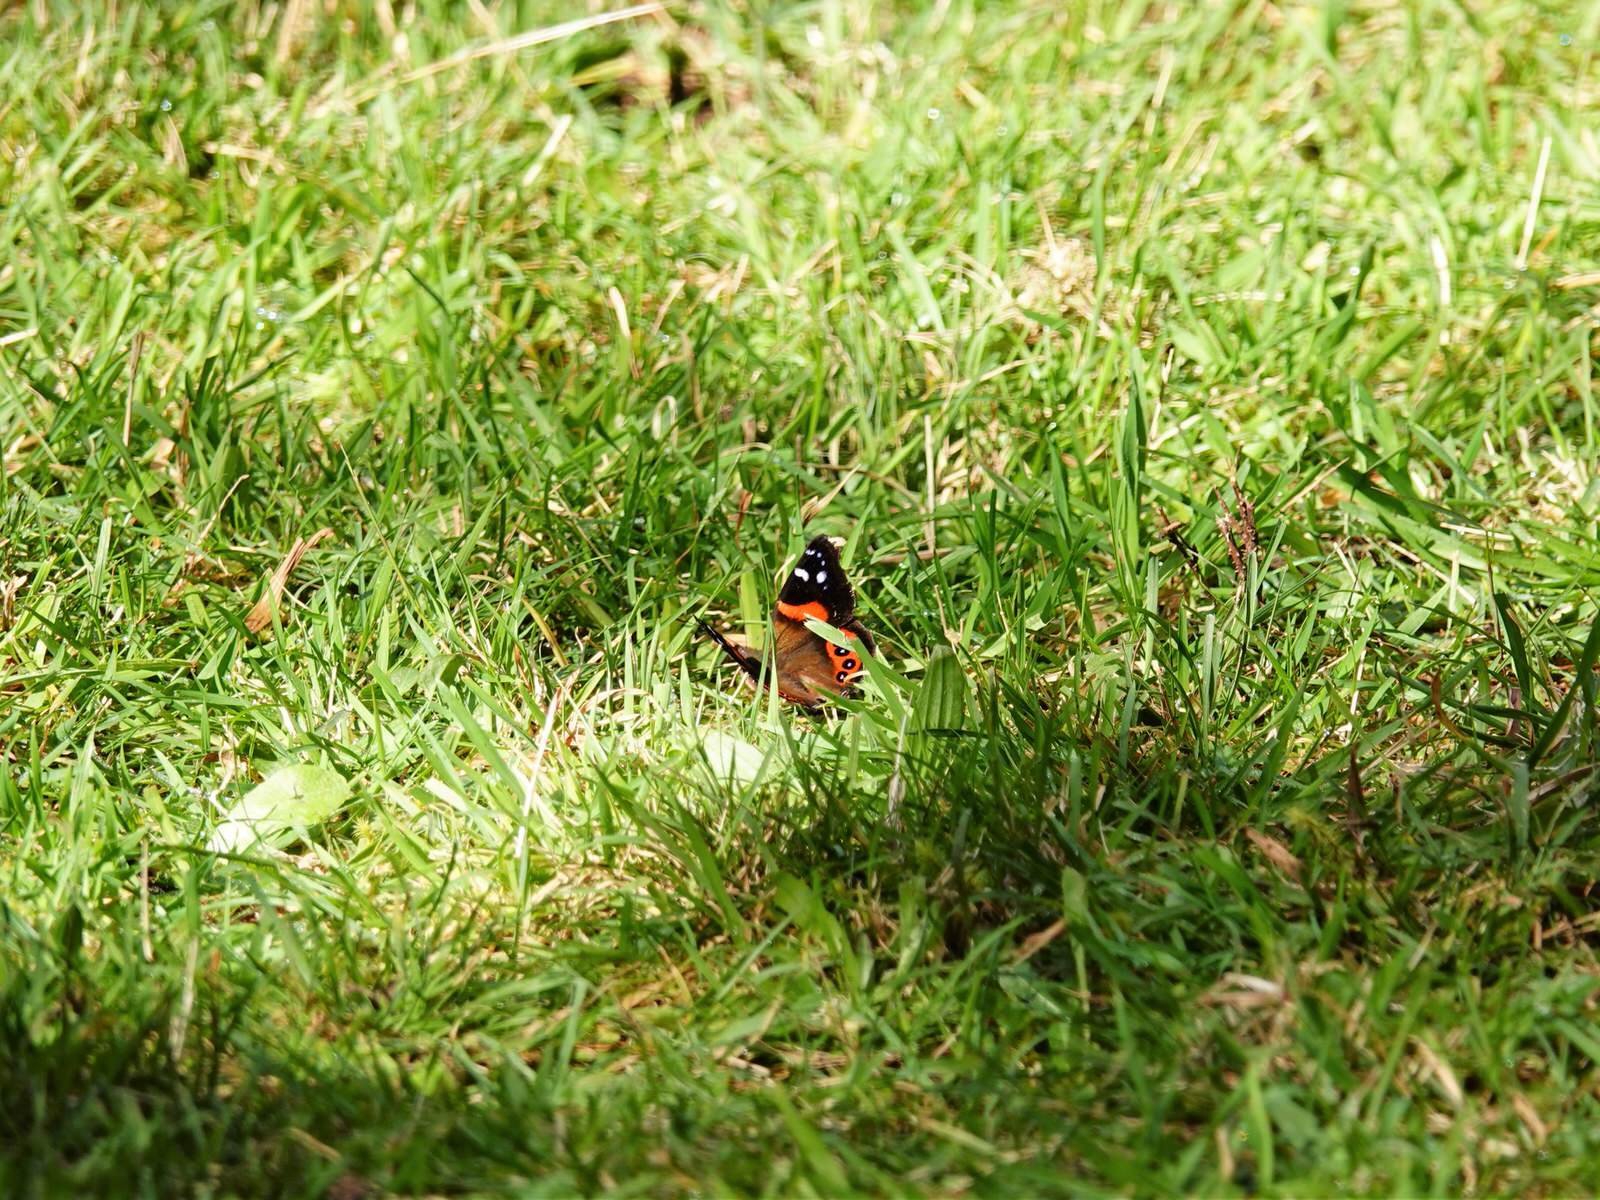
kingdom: Animalia
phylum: Arthropoda
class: Insecta
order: Lepidoptera
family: Nymphalidae
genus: Vanessa
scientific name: Vanessa gonerilla
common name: New zealand red admiral
